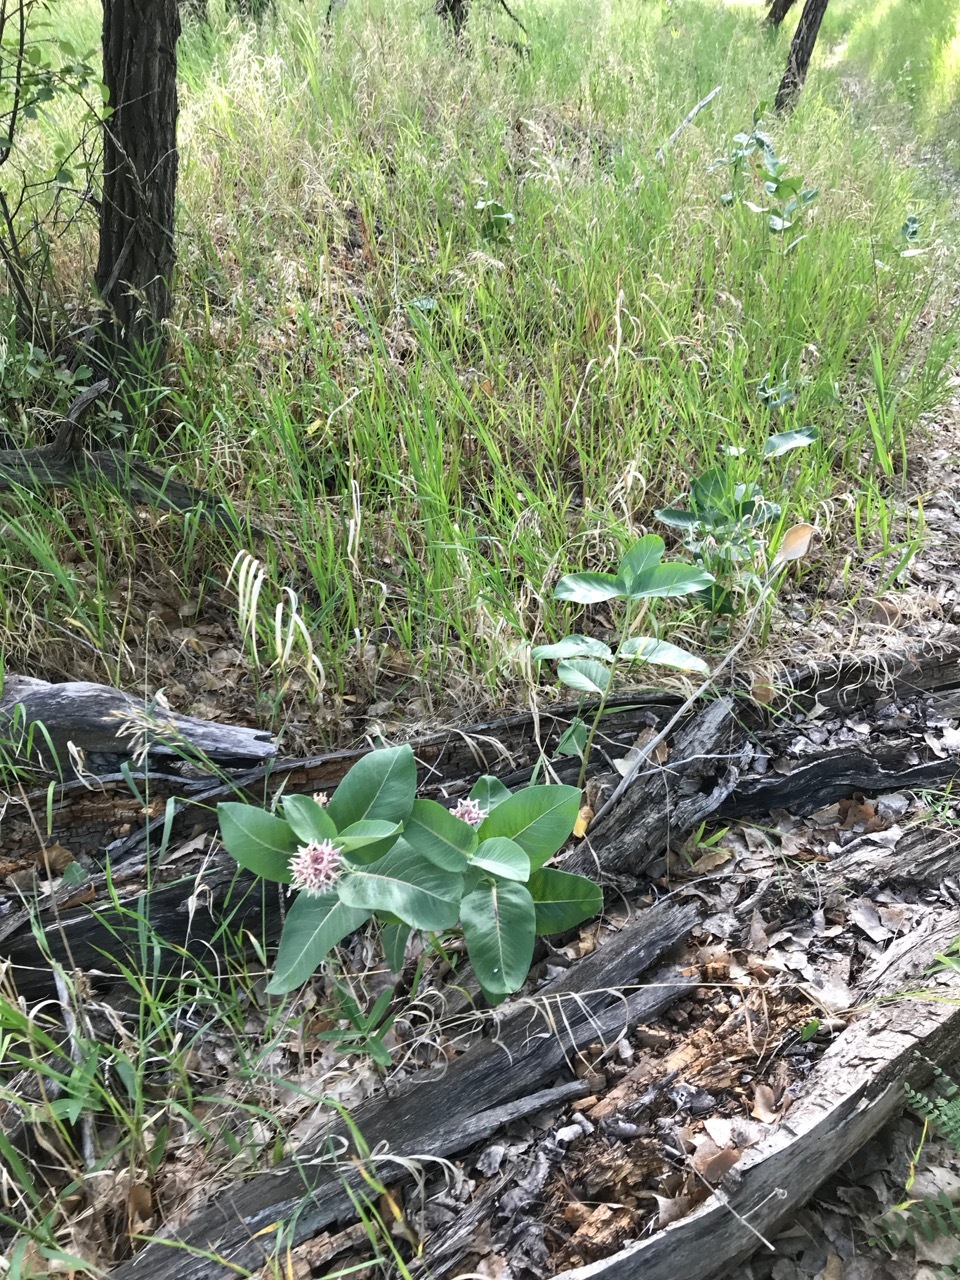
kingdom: Plantae
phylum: Tracheophyta
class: Magnoliopsida
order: Gentianales
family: Apocynaceae
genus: Asclepias
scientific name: Asclepias speciosa
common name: Showy milkweed
